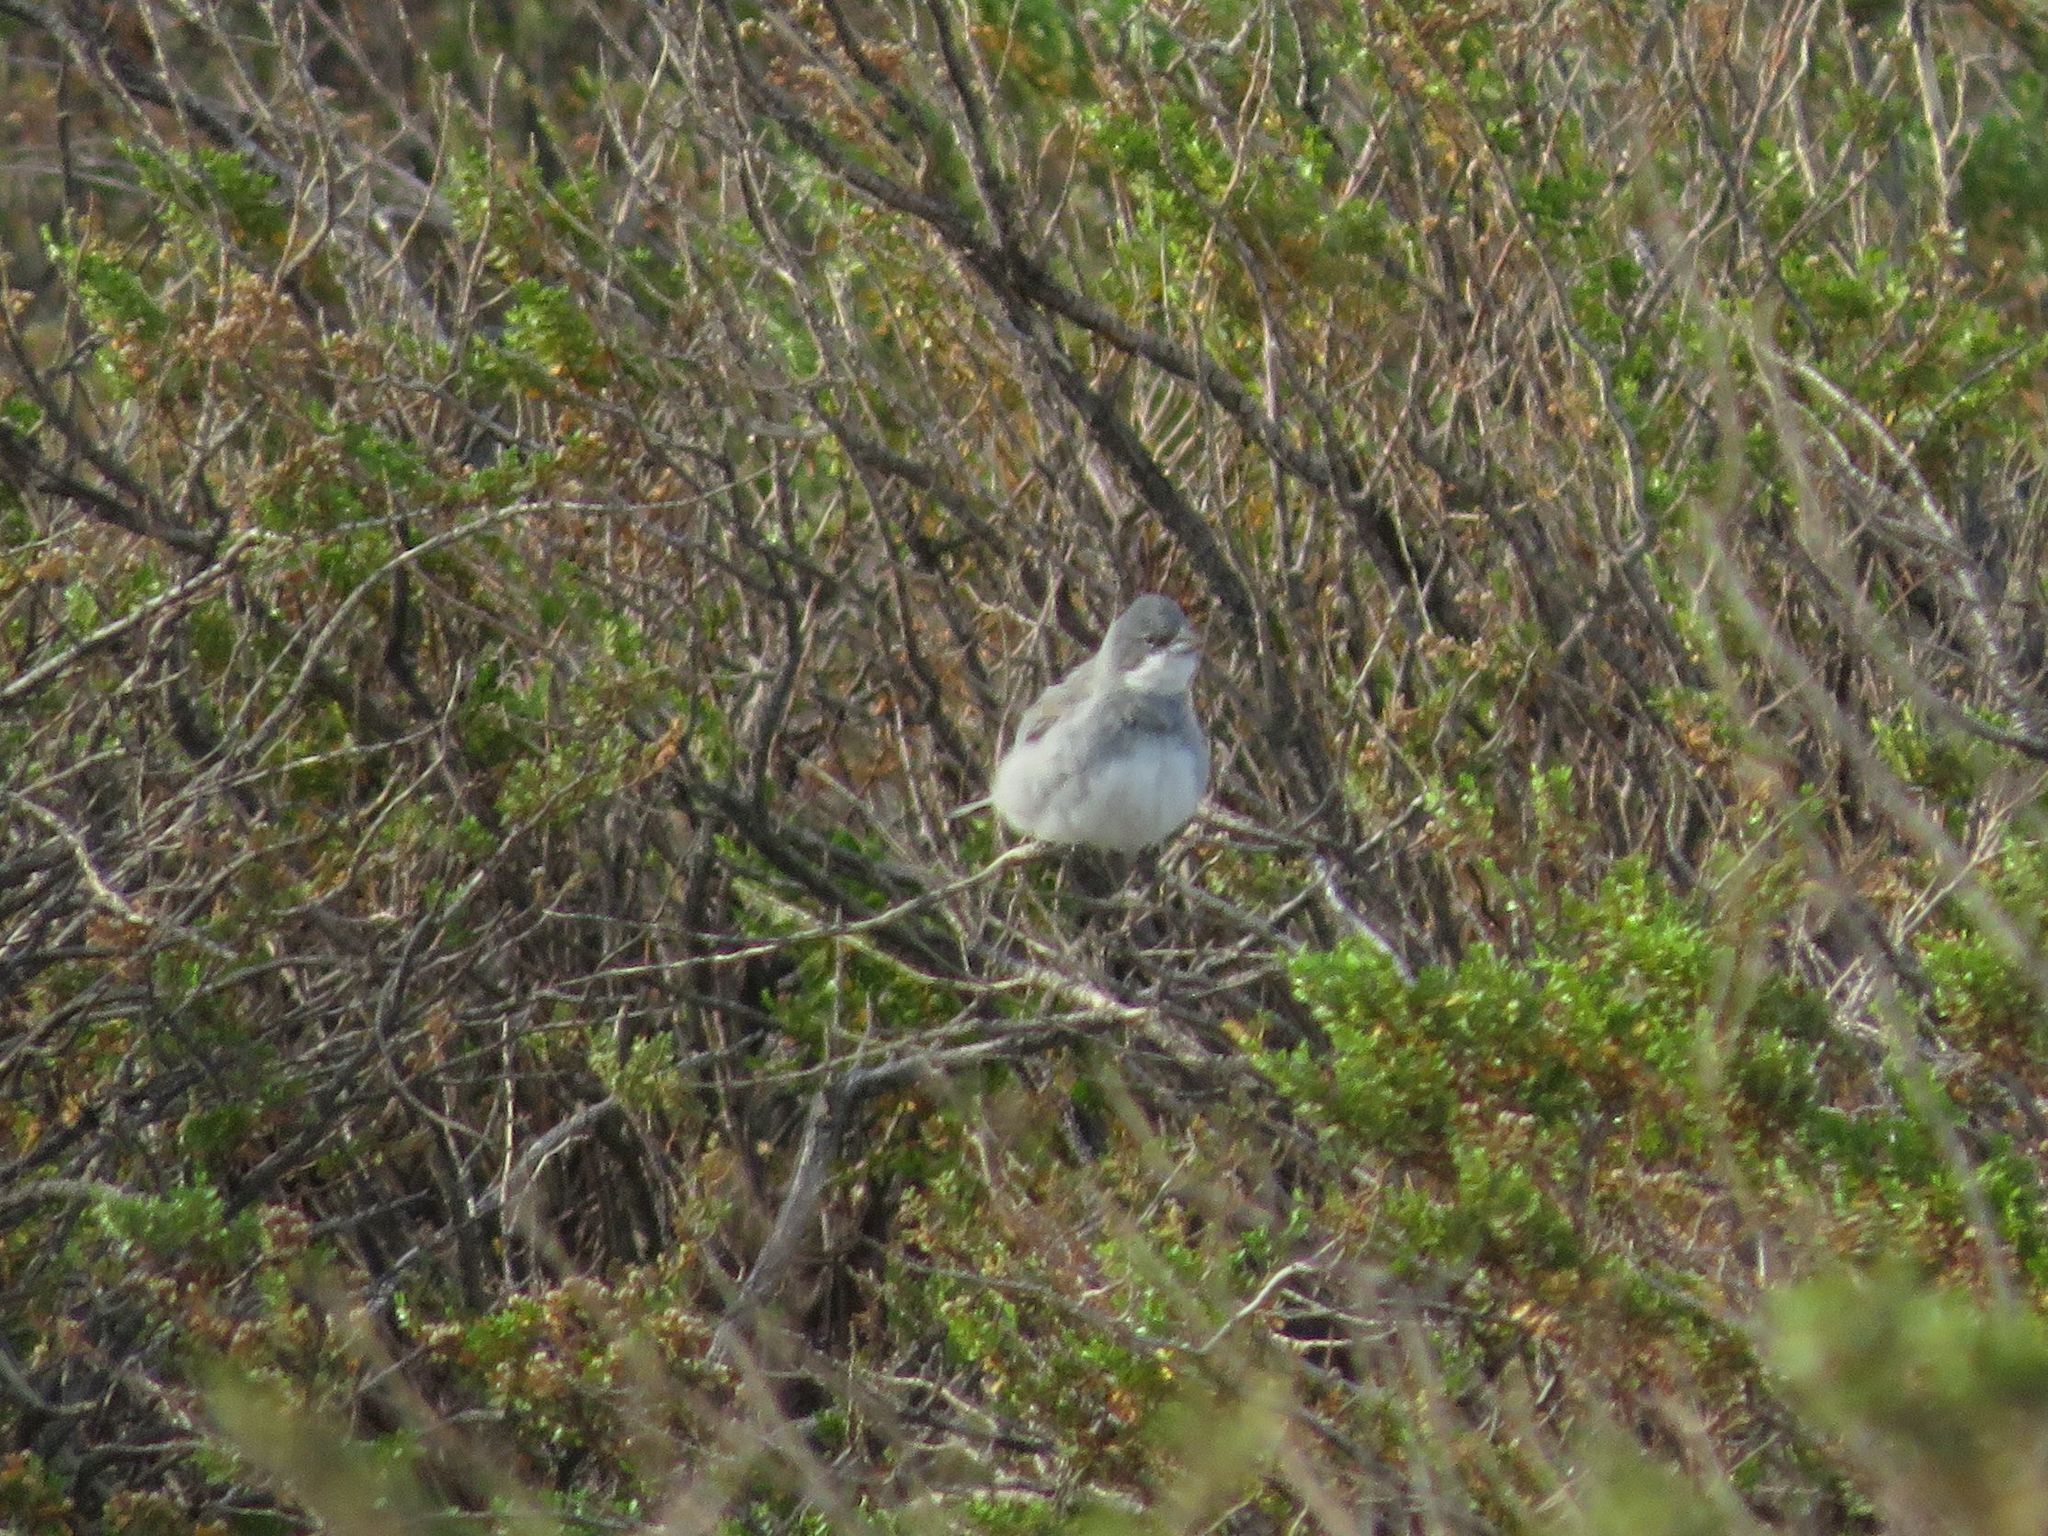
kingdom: Animalia
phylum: Chordata
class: Aves
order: Passeriformes
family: Thraupidae
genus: Diuca
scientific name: Diuca diuca
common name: Common diuca finch
